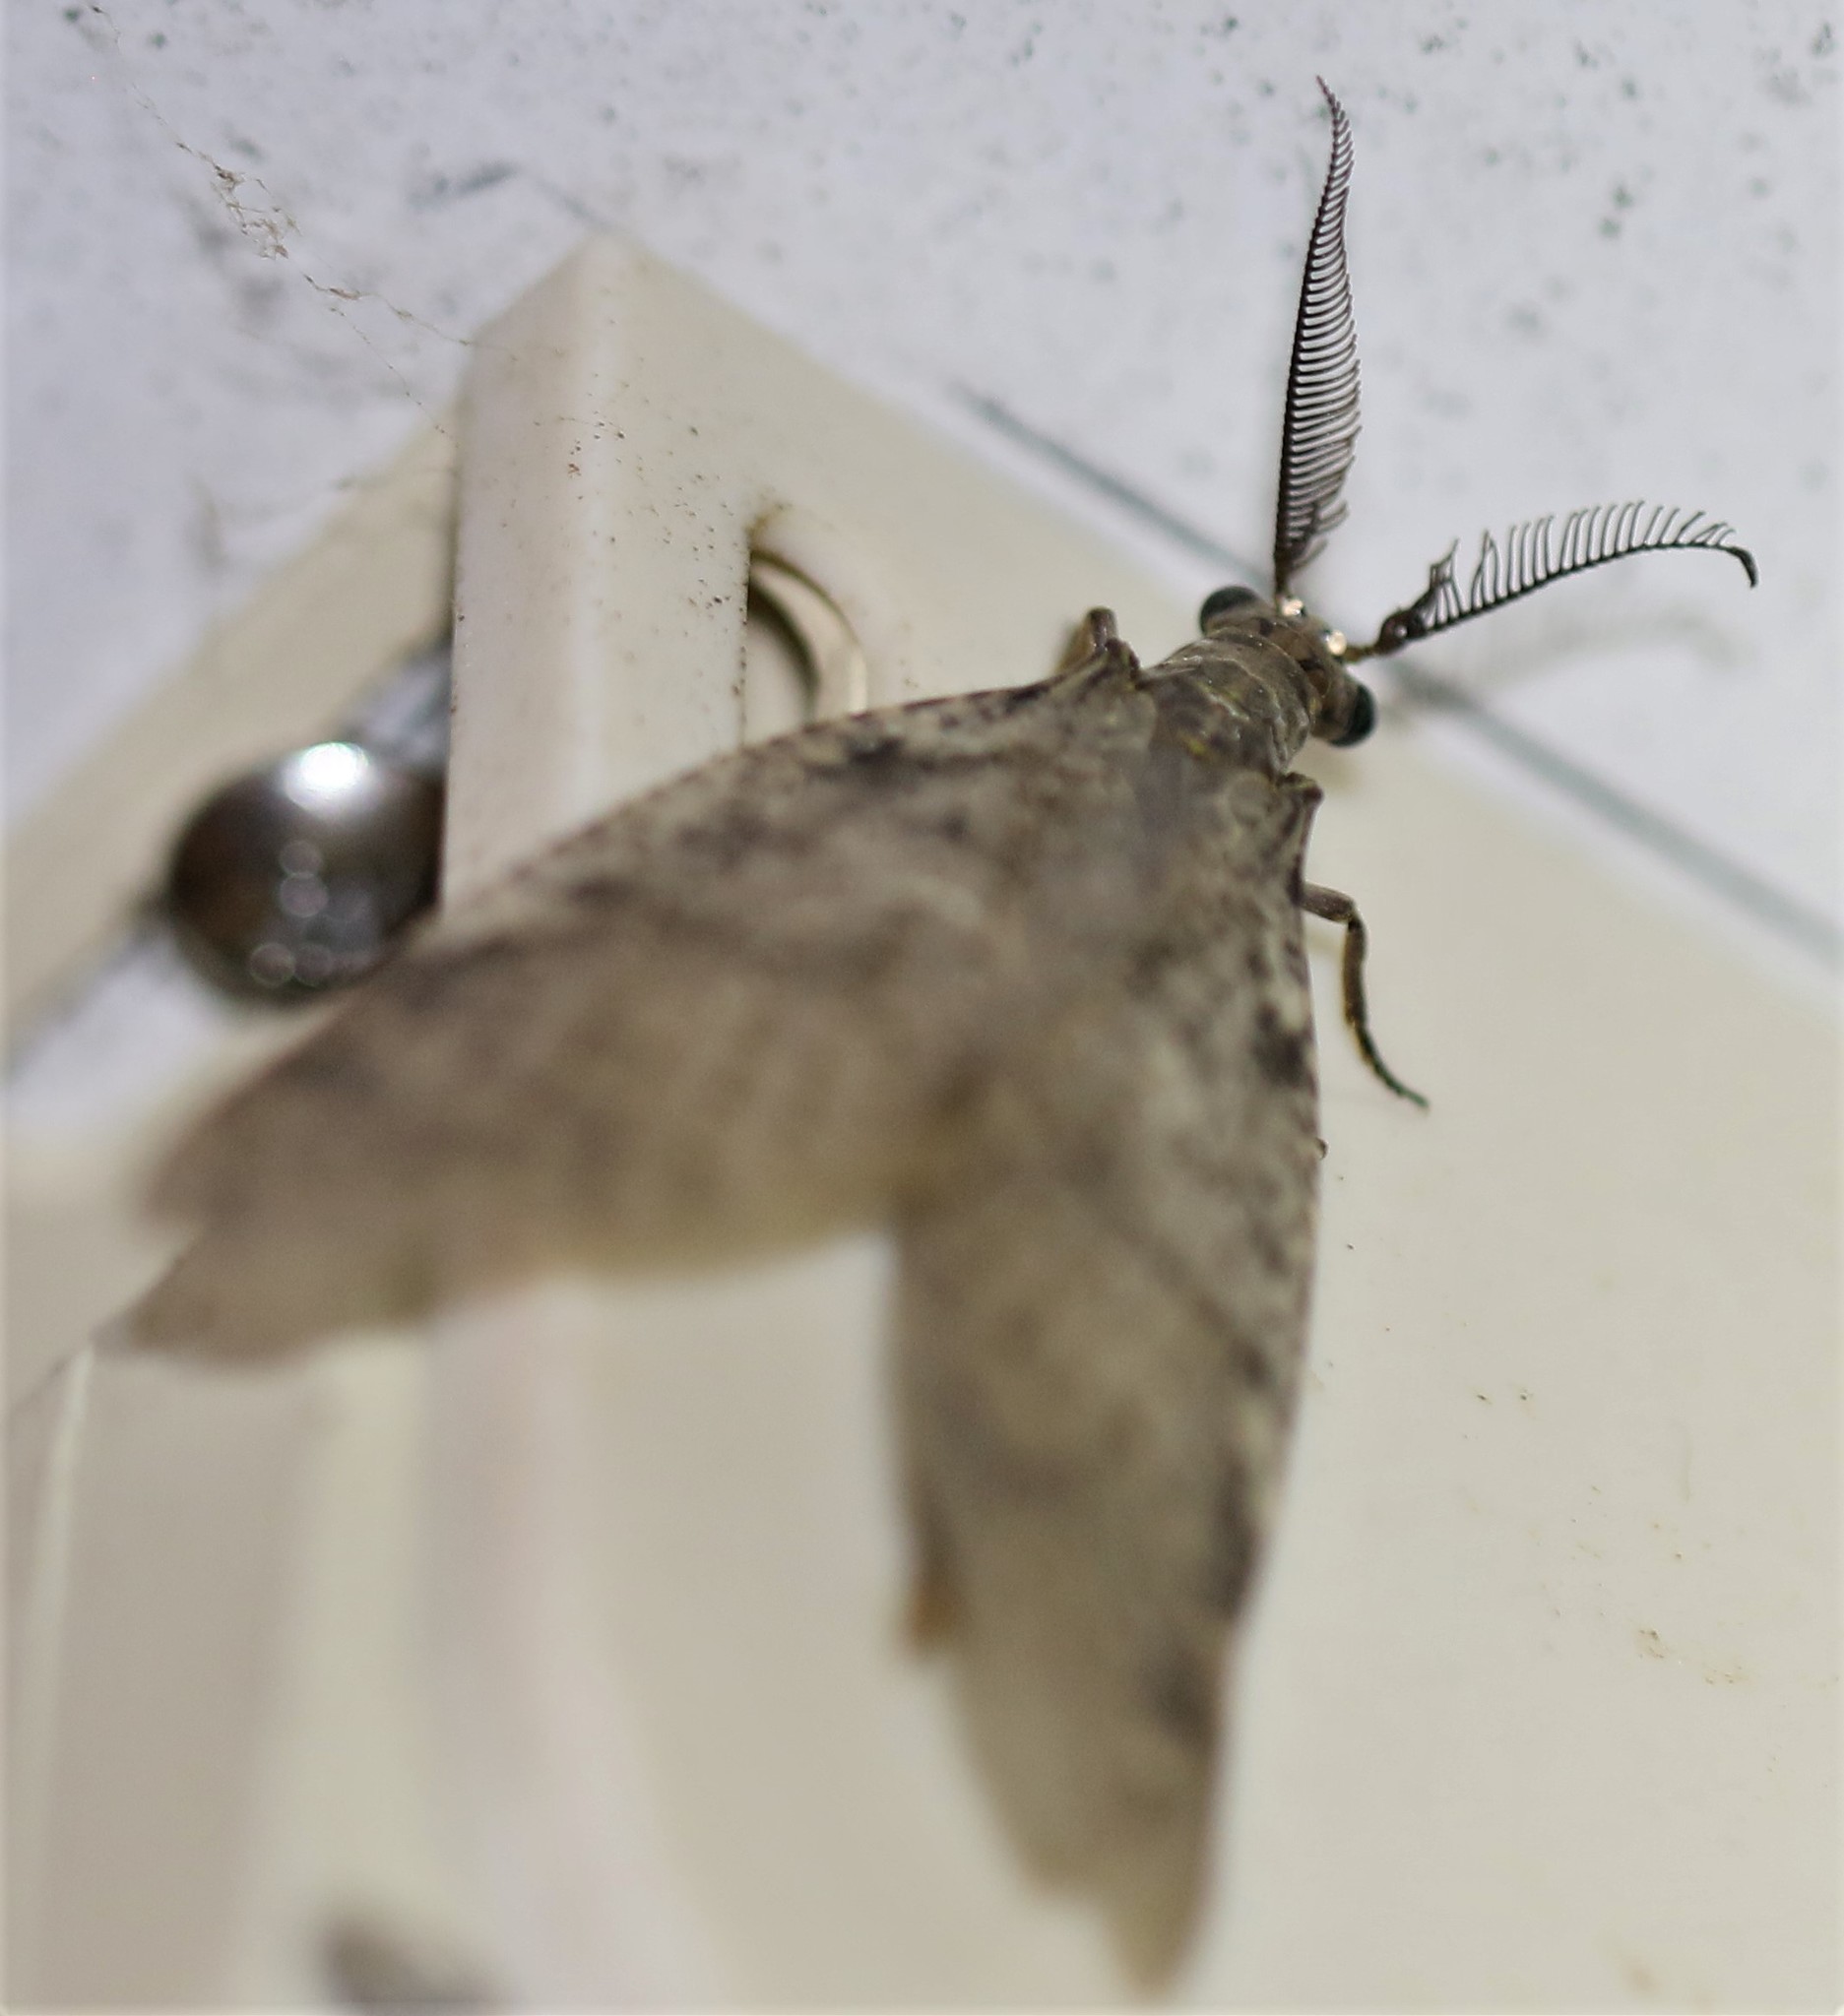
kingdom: Animalia
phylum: Arthropoda
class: Insecta
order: Megaloptera
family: Corydalidae
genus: Chauliodes
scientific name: Chauliodes pectinicornis
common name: Summer fishfly
